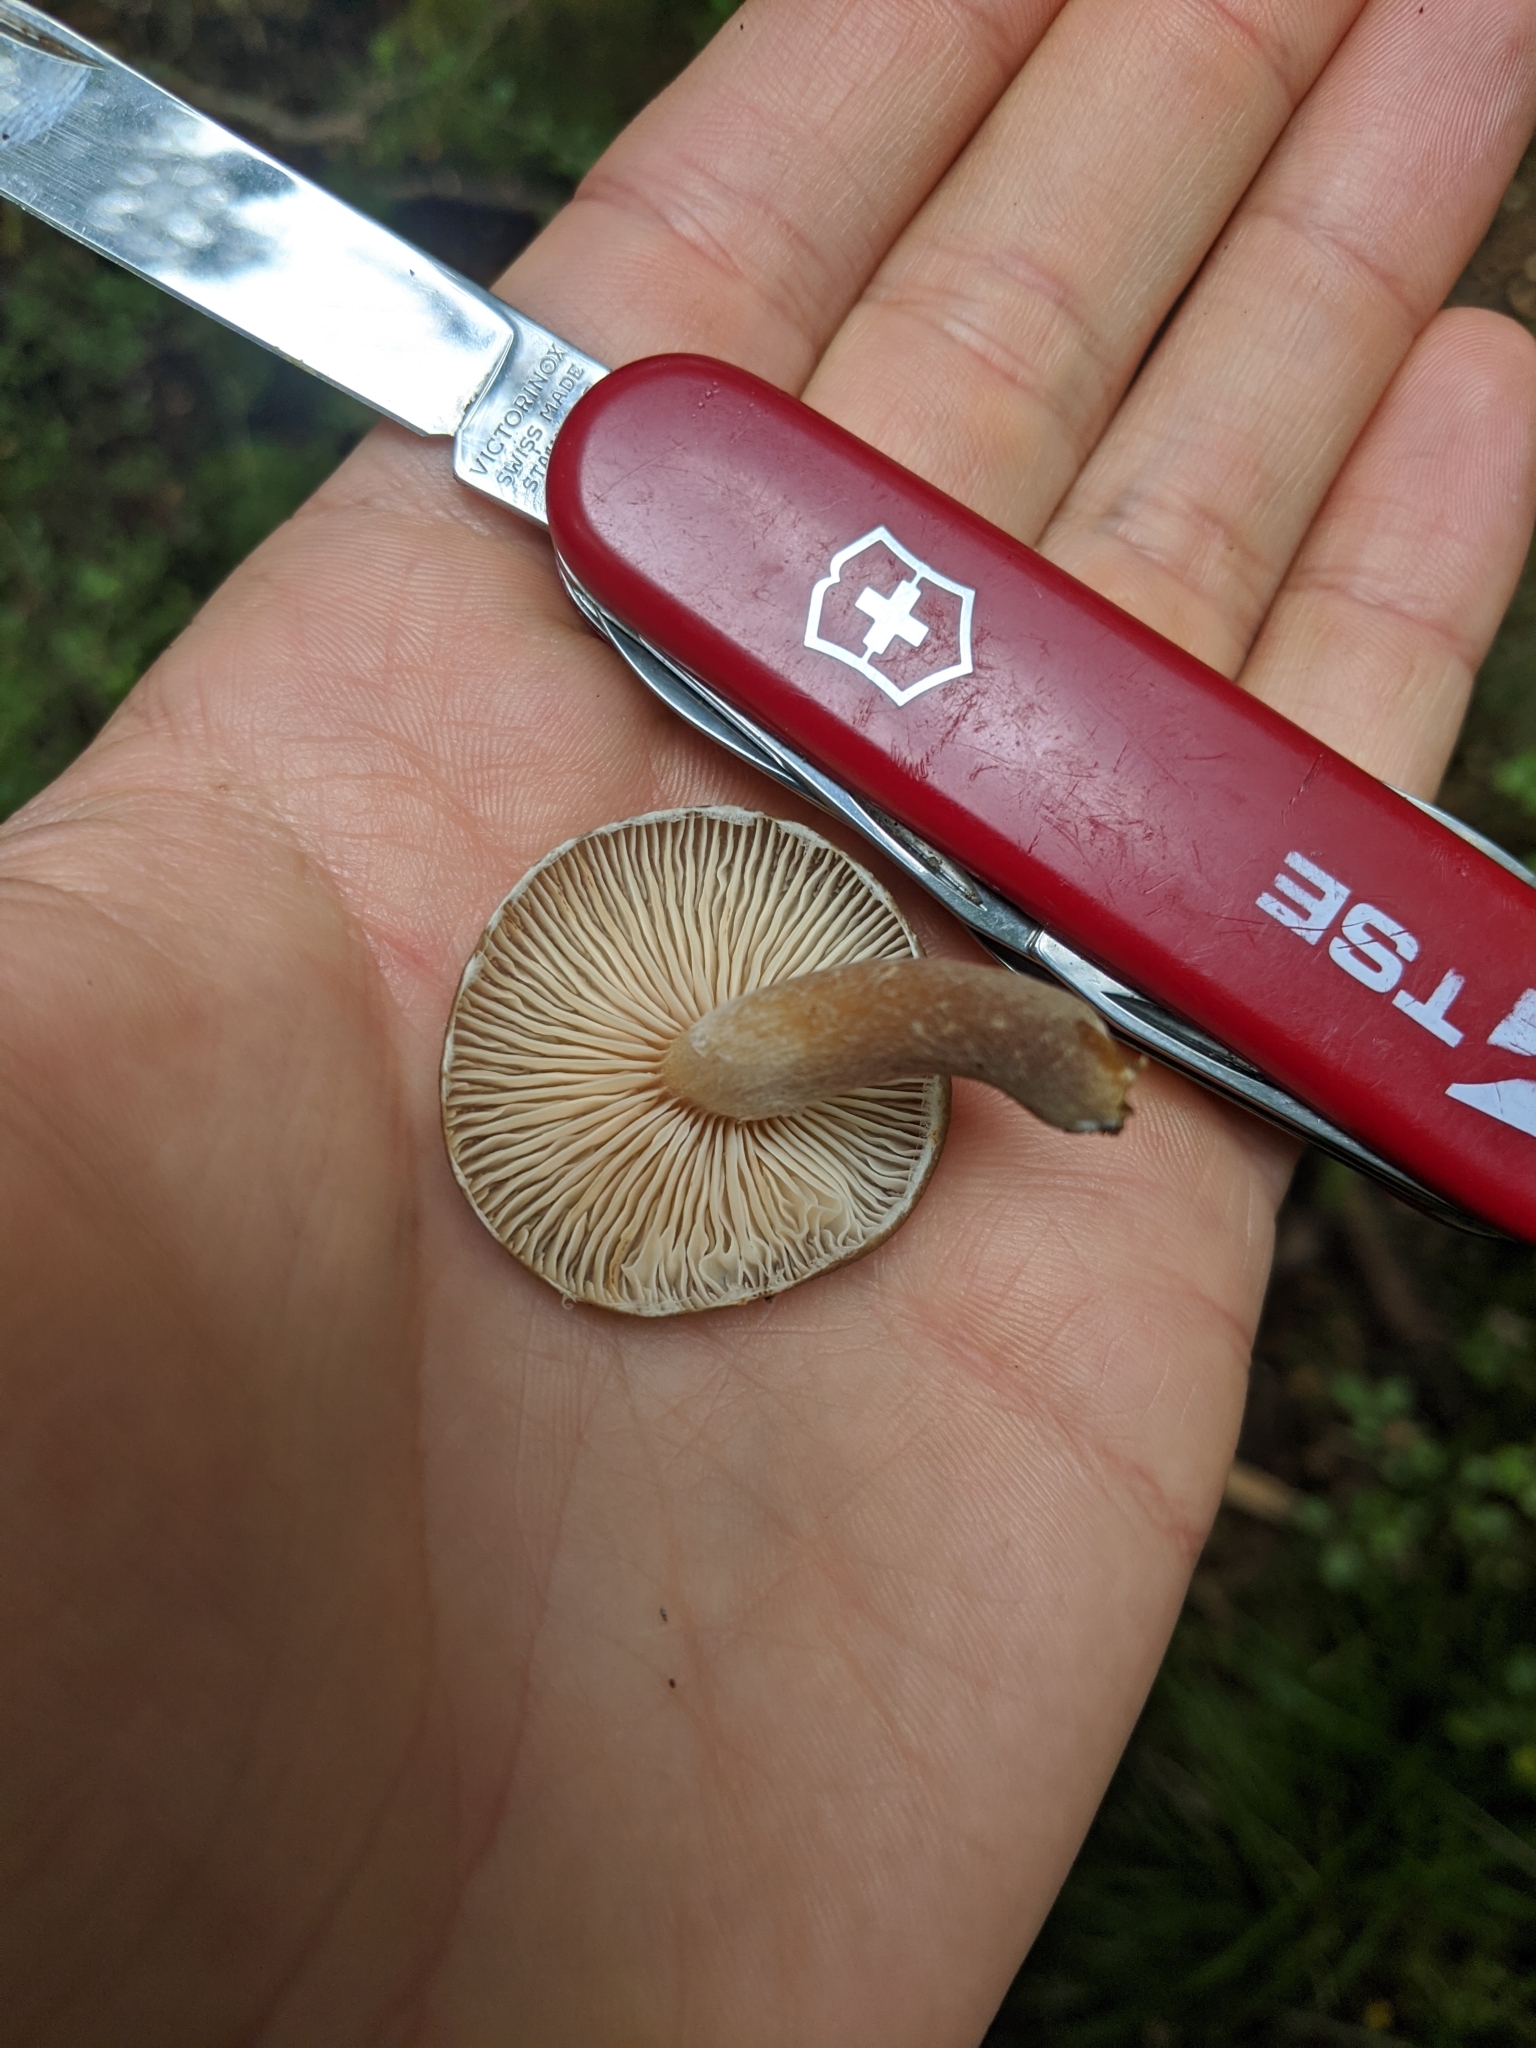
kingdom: Fungi
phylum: Basidiomycota
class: Agaricomycetes
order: Agaricales
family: Physalacriaceae
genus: Armillaria
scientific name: Armillaria novae-zelandiae
